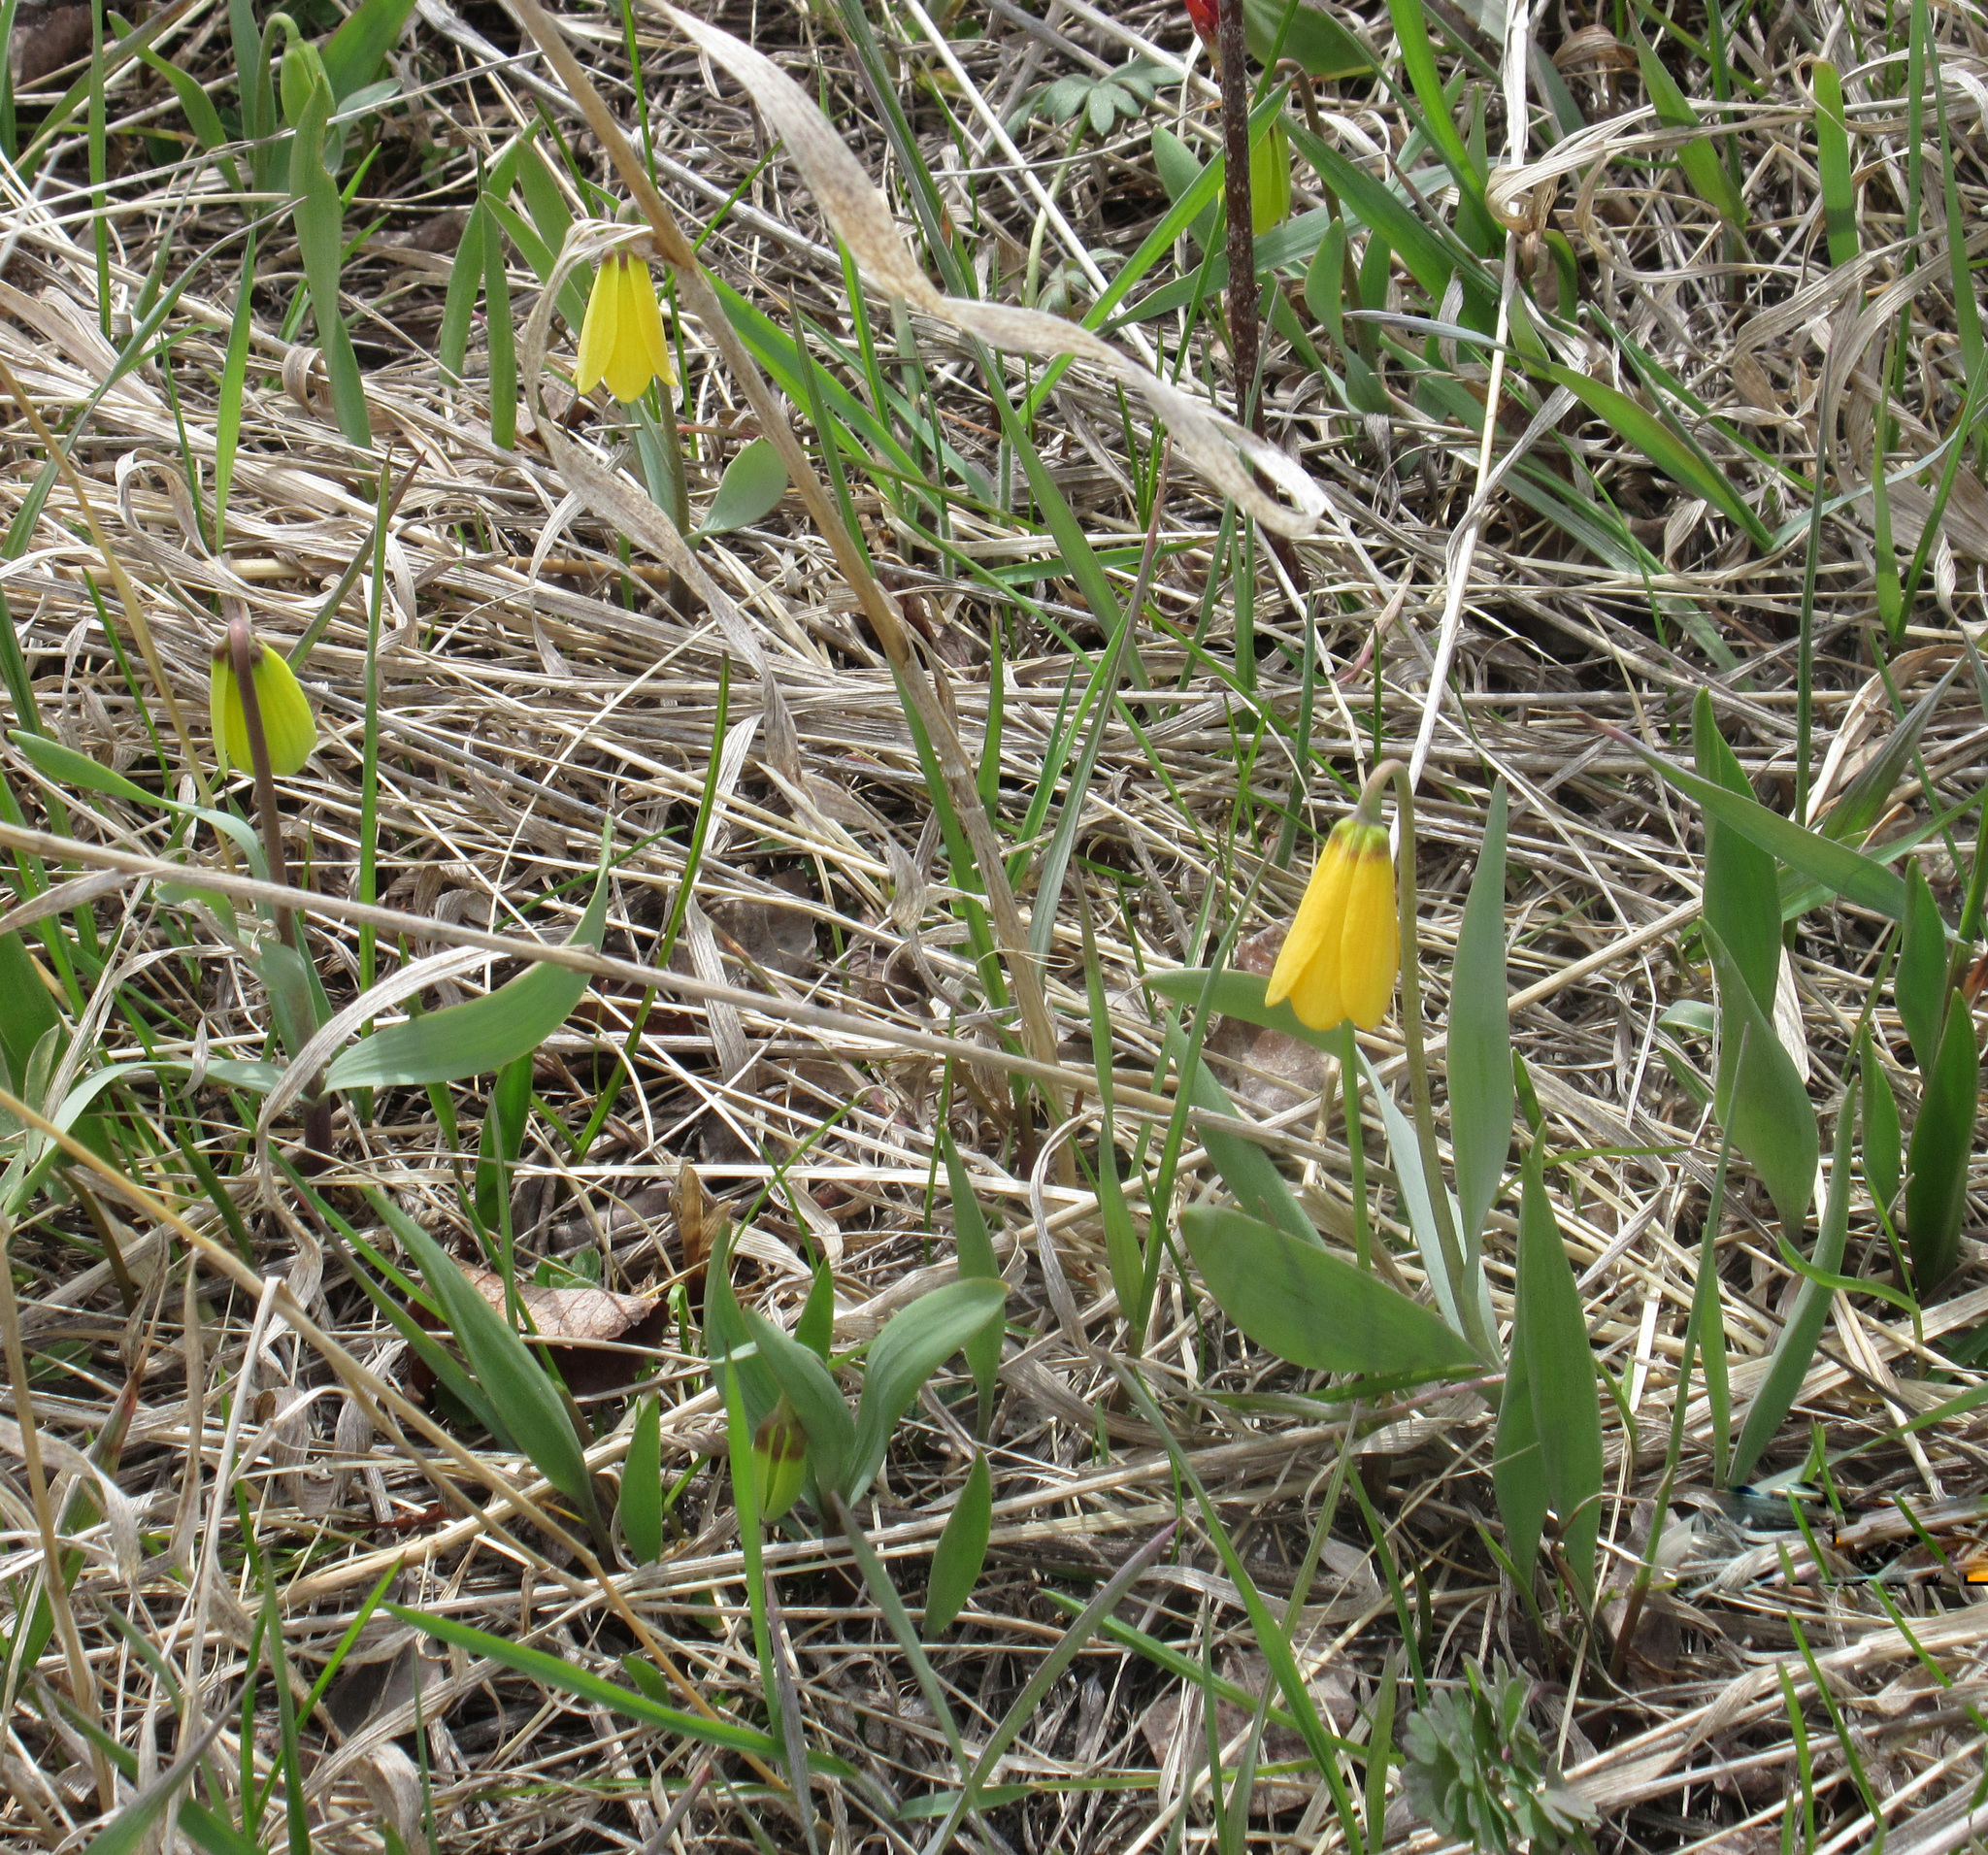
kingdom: Plantae
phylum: Tracheophyta
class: Liliopsida
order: Liliales
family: Liliaceae
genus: Fritillaria
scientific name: Fritillaria pudica
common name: Yellow fritillary
